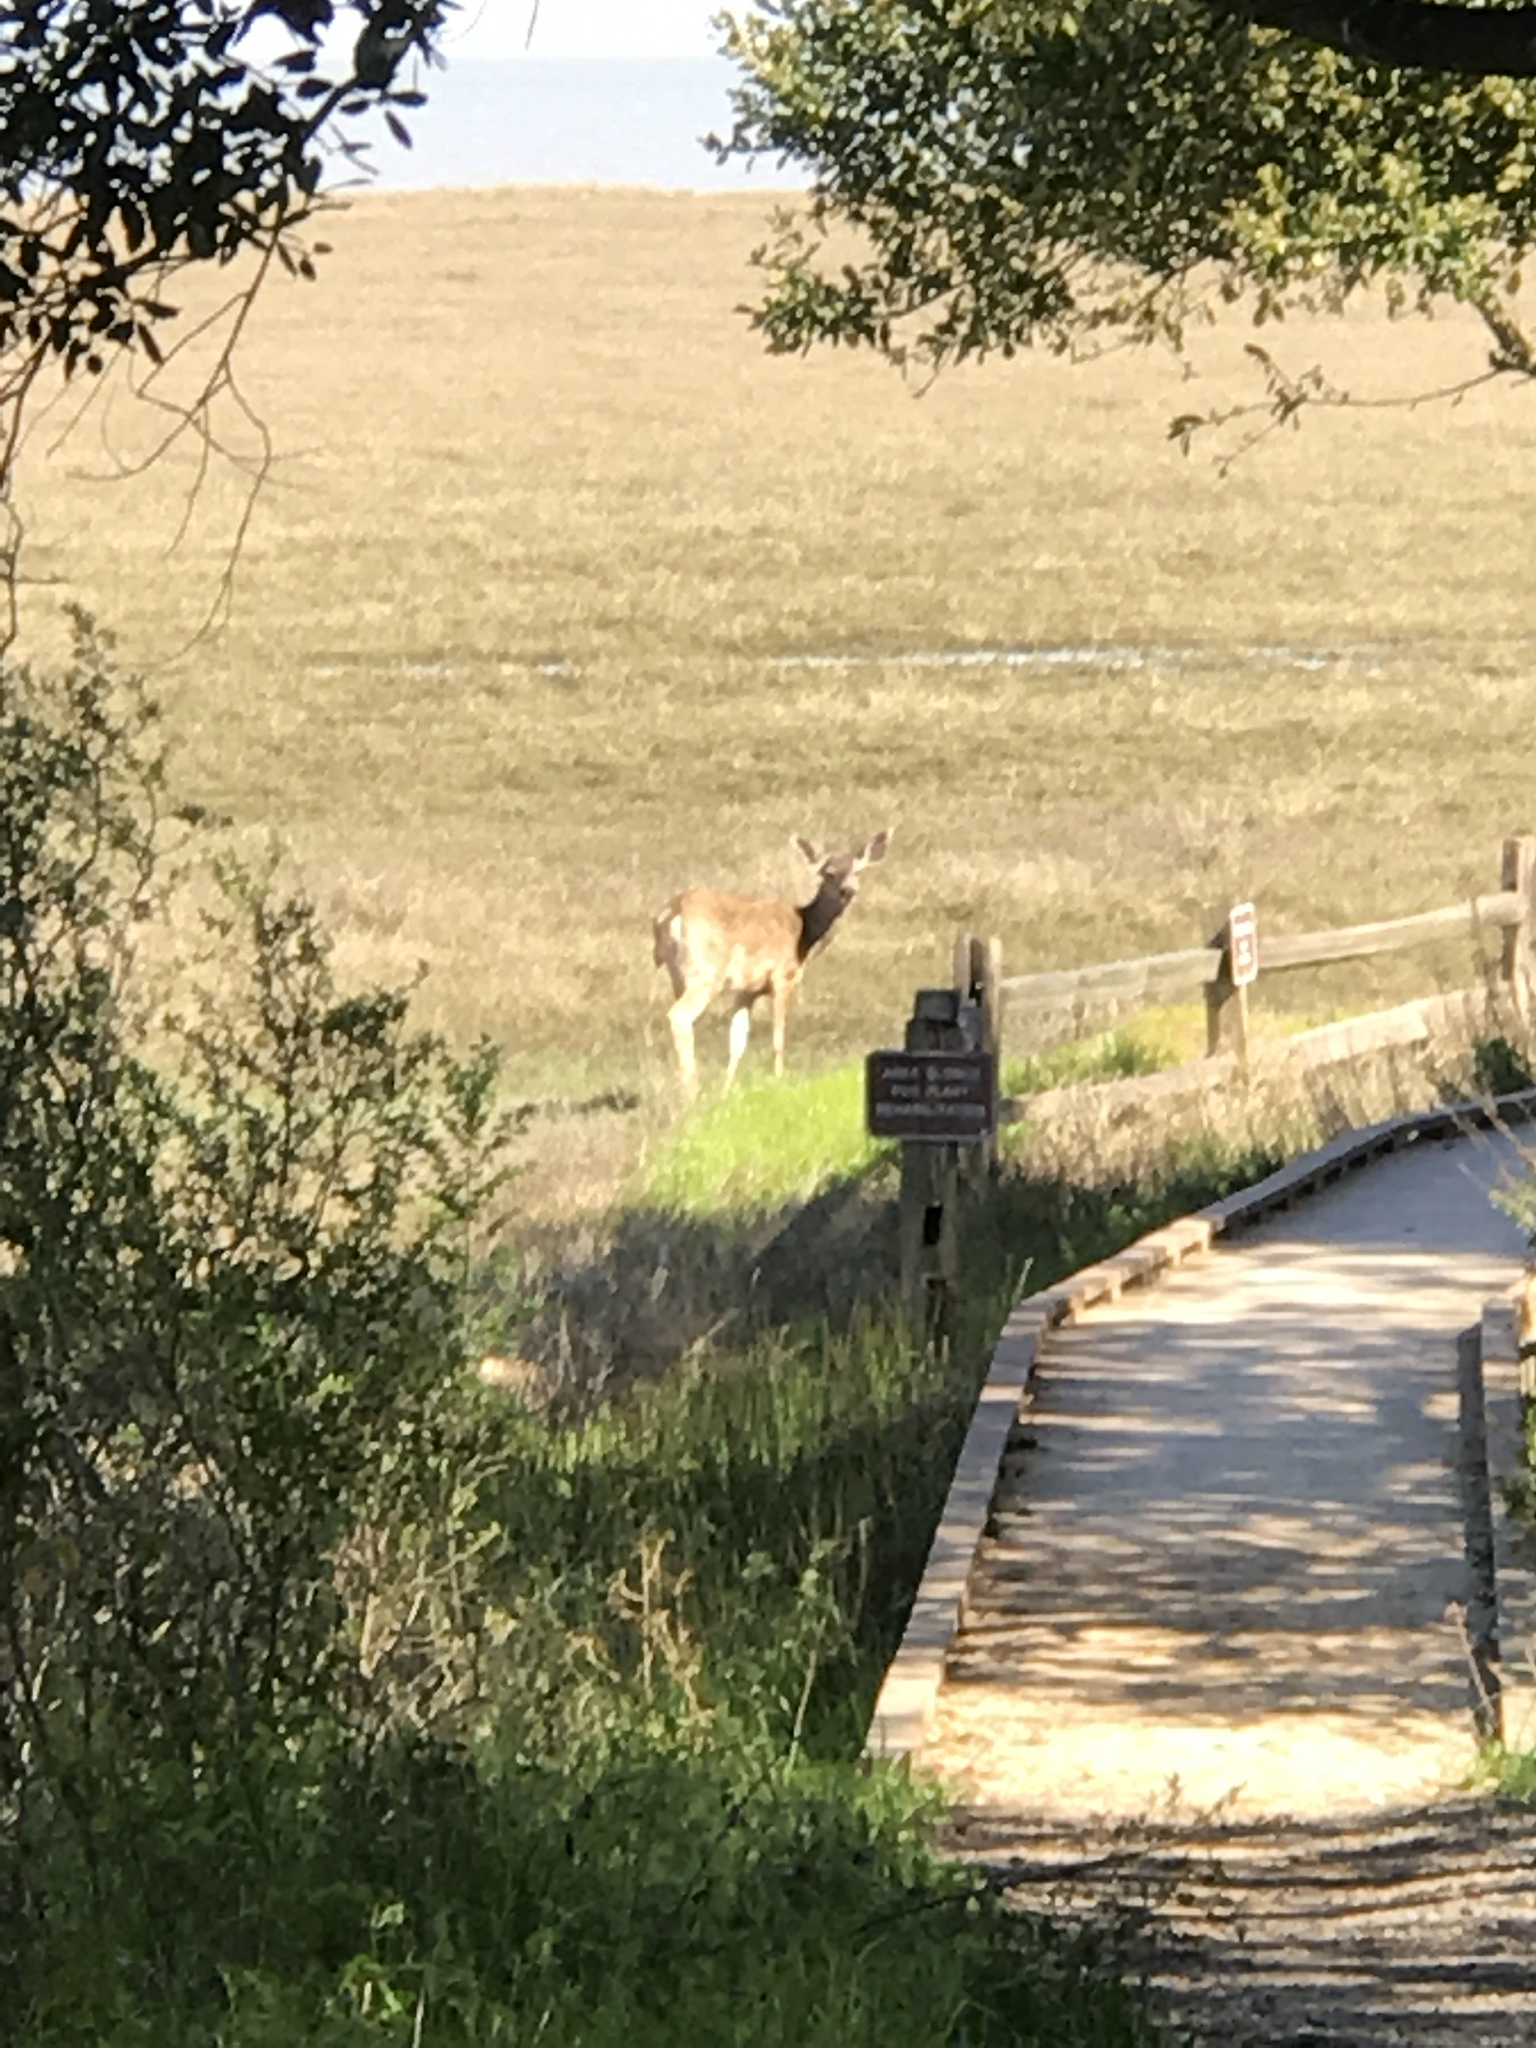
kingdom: Animalia
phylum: Chordata
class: Mammalia
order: Artiodactyla
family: Cervidae
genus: Odocoileus
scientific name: Odocoileus hemionus
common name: Mule deer
